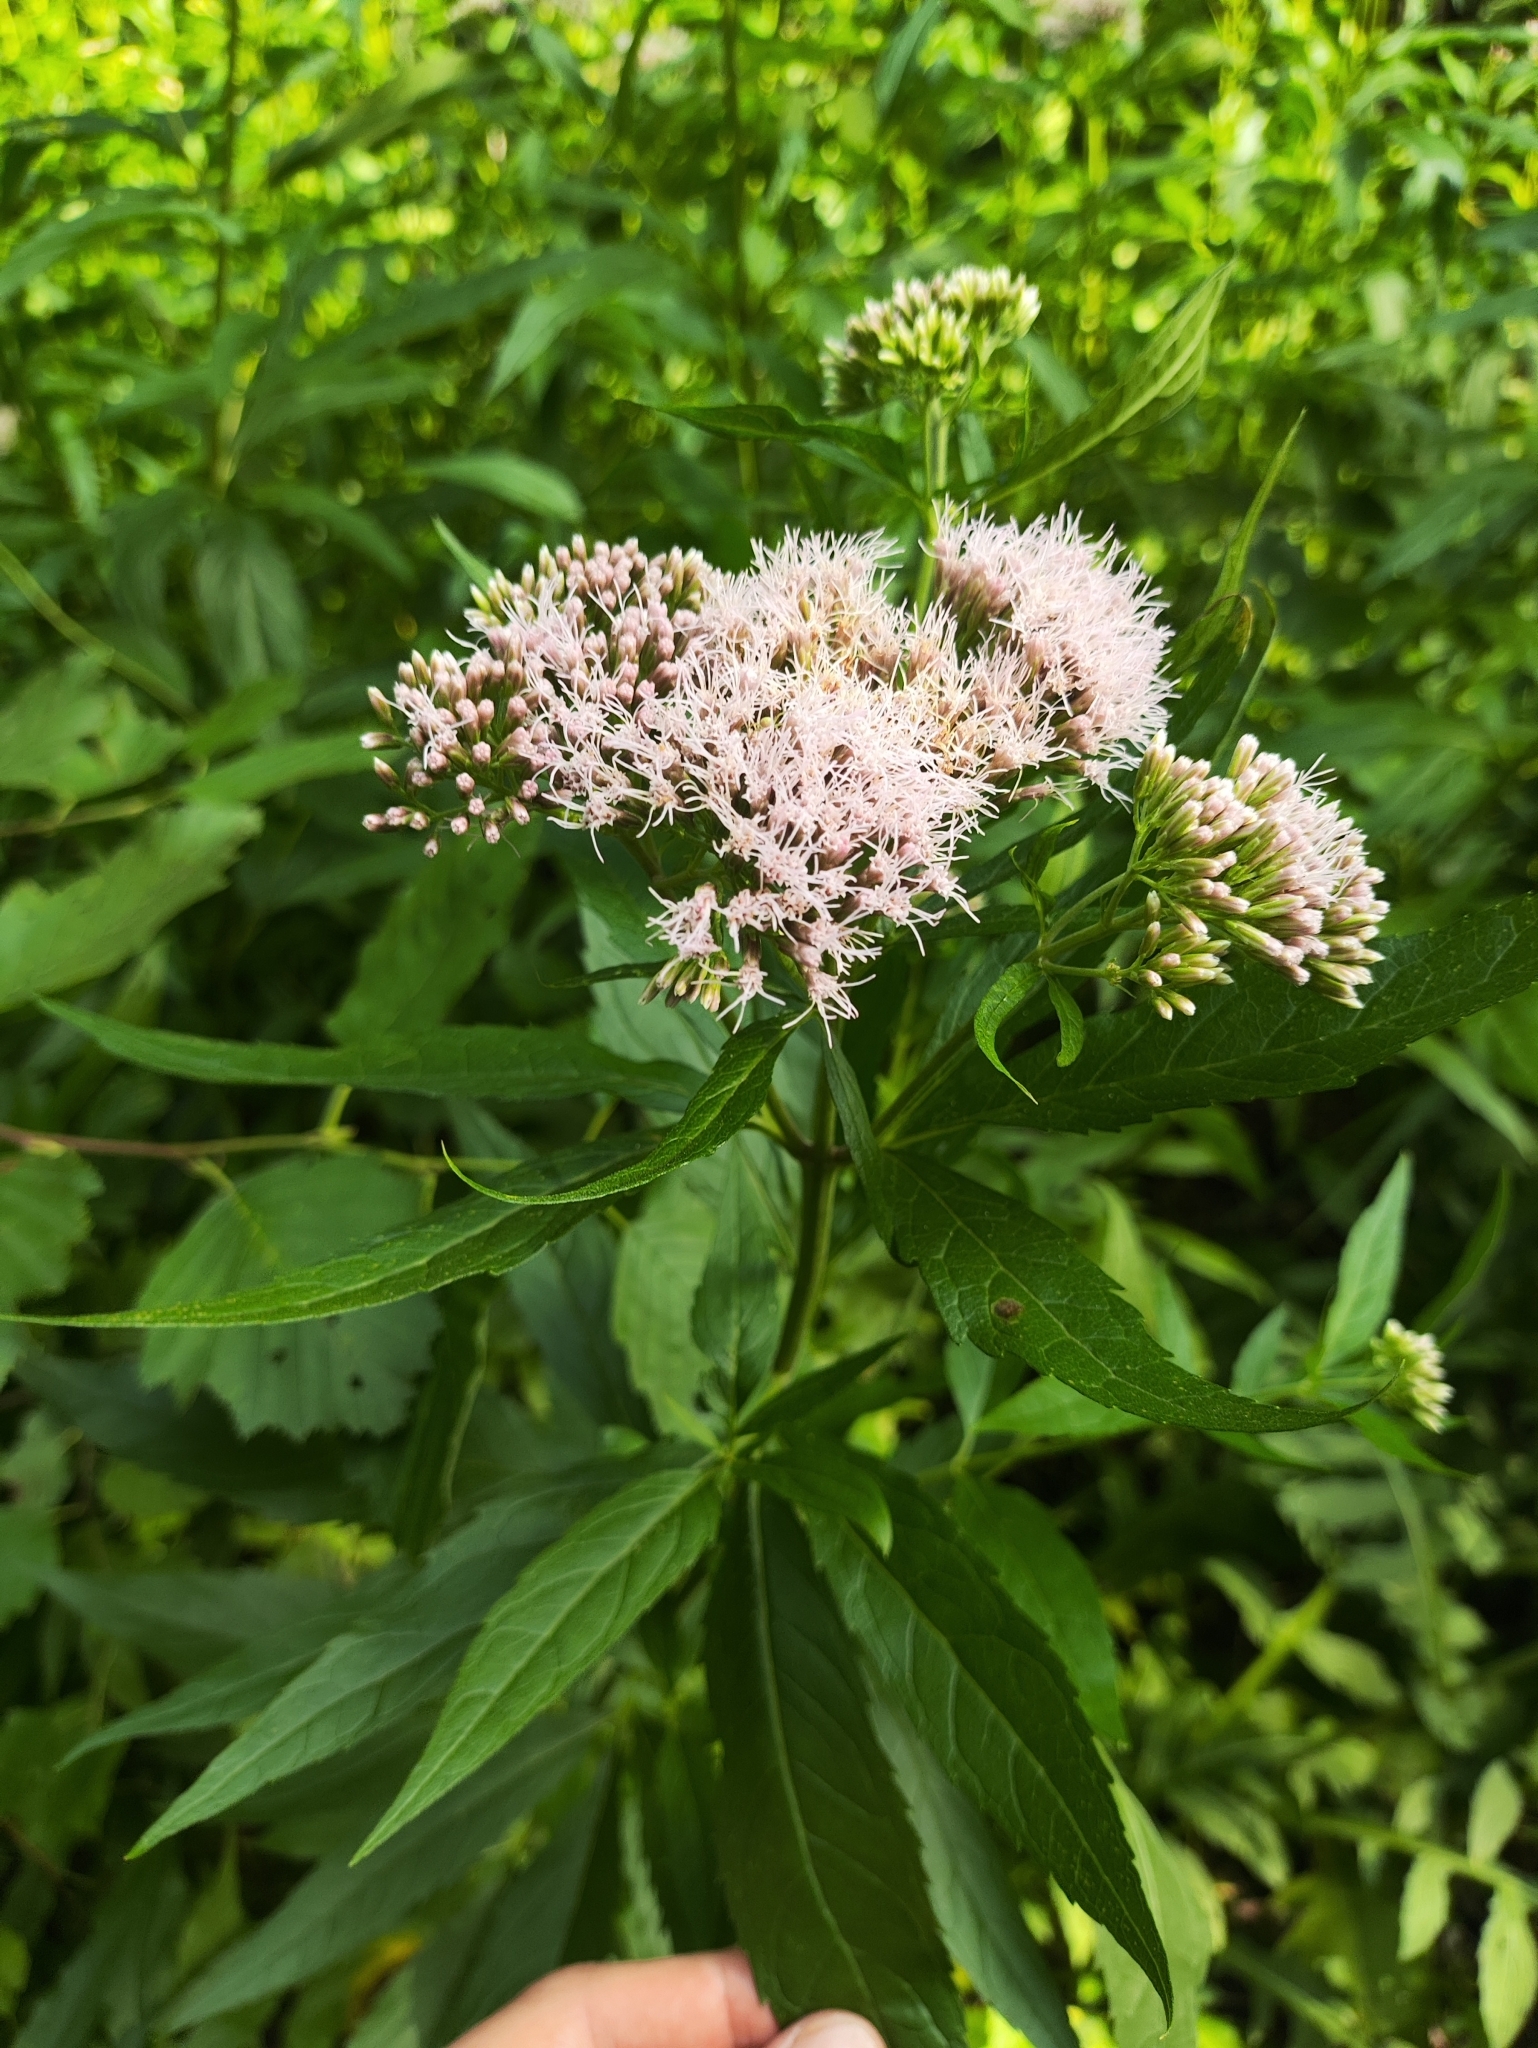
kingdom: Plantae
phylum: Tracheophyta
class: Magnoliopsida
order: Asterales
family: Asteraceae
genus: Eupatorium
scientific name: Eupatorium cannabinum
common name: Hemp-agrimony
